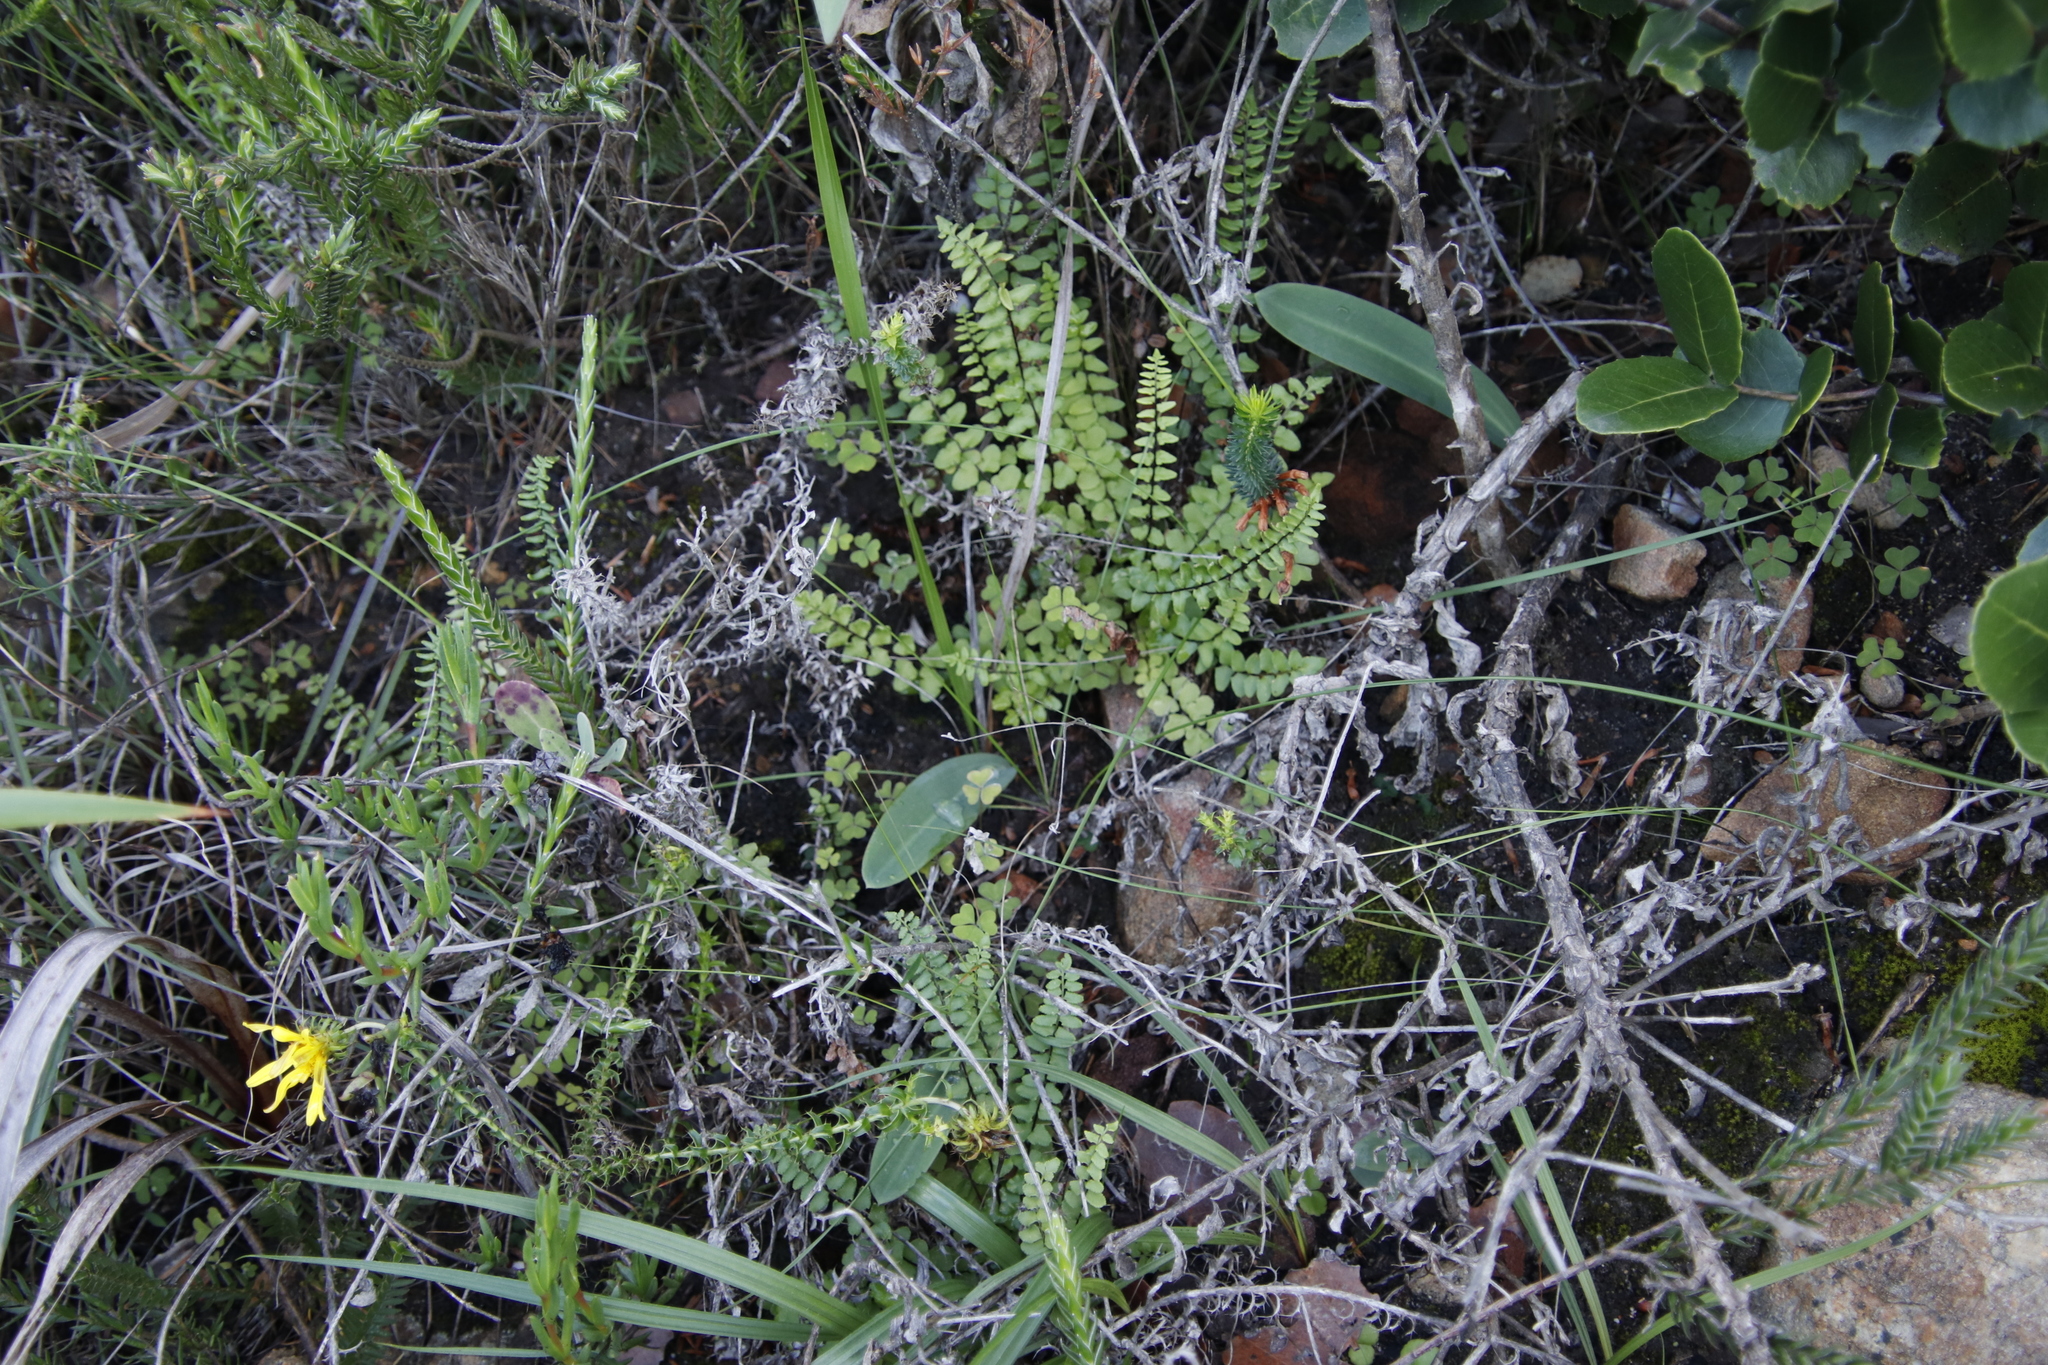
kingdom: Plantae
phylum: Tracheophyta
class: Polypodiopsida
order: Polypodiales
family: Pteridaceae
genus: Cheilanthes
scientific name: Cheilanthes hastata
